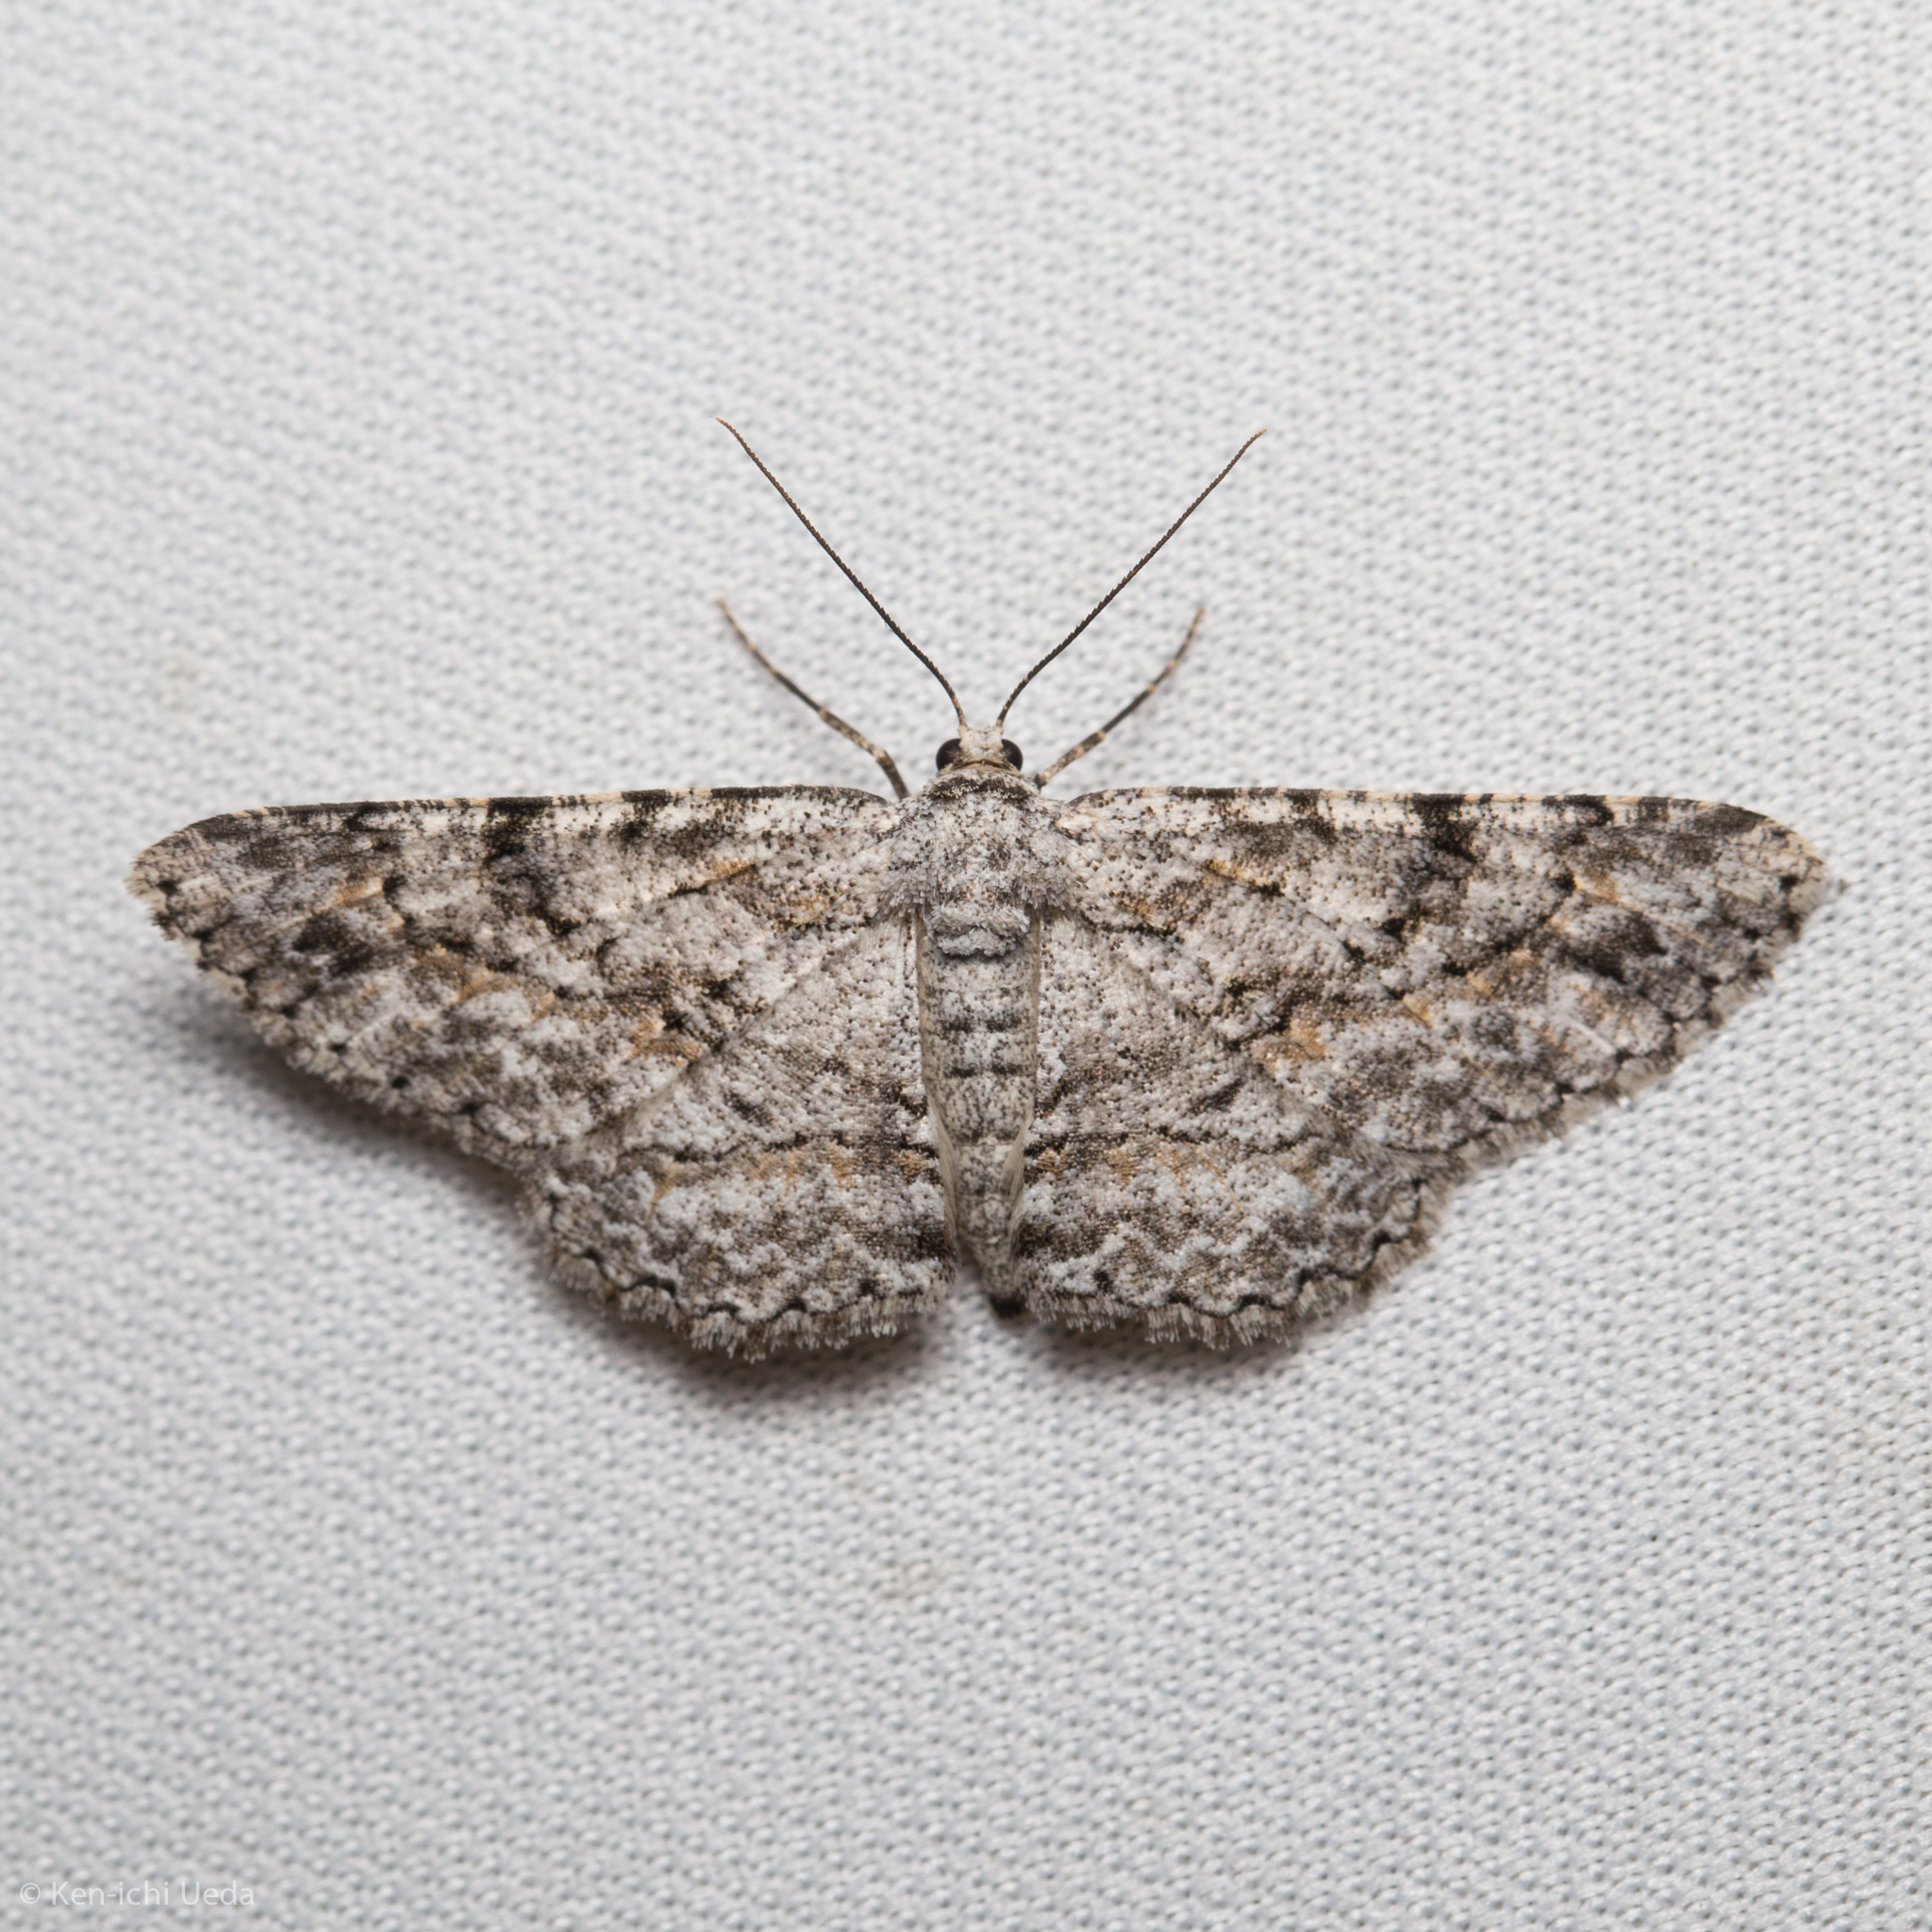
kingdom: Animalia
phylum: Arthropoda
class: Insecta
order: Lepidoptera
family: Geometridae
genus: Anavitrinella
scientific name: Anavitrinella pampinaria
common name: Common gray
